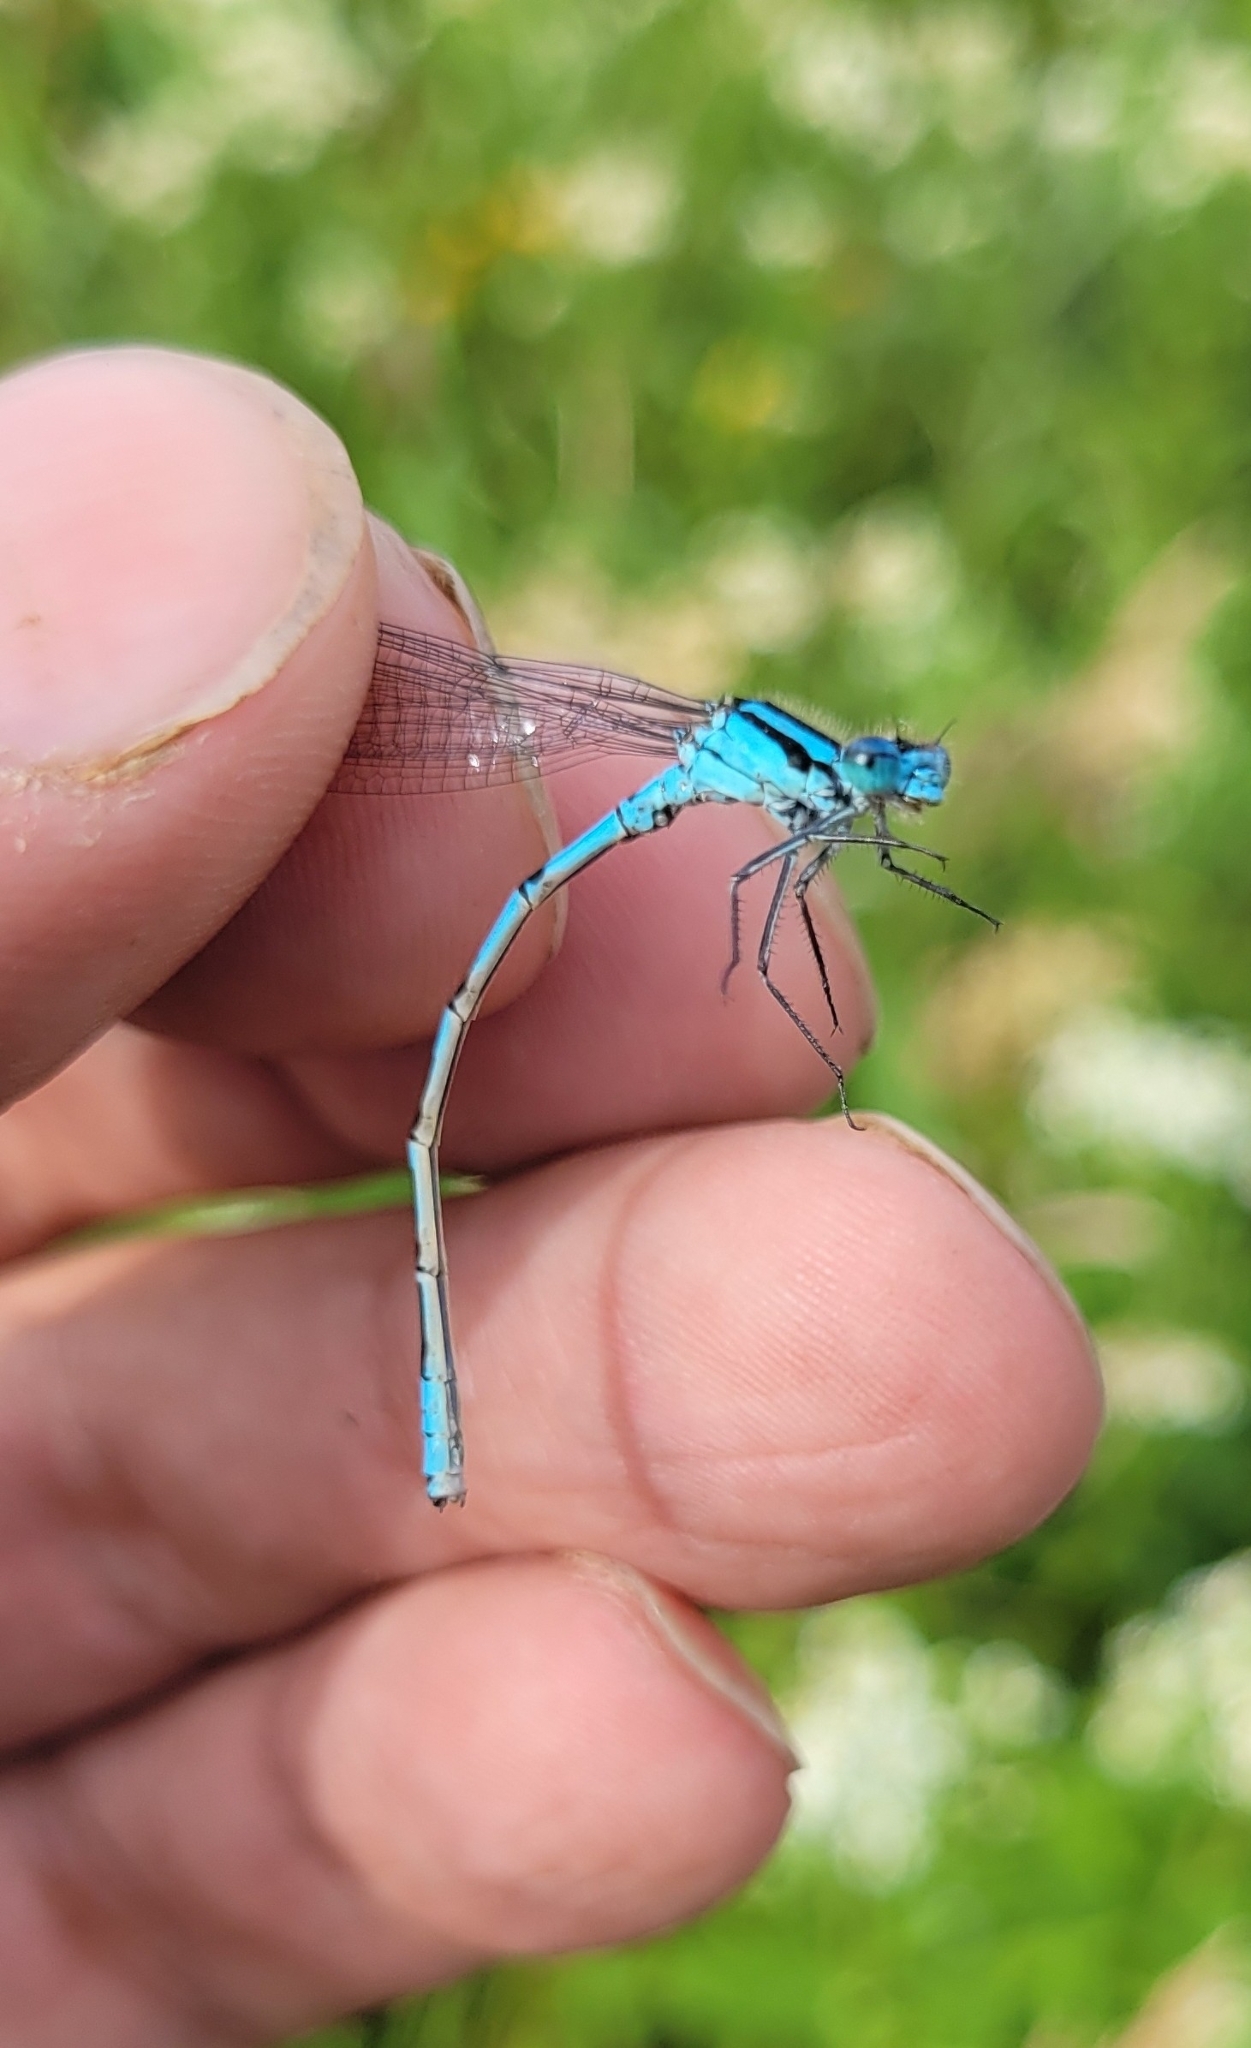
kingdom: Animalia
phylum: Arthropoda
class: Insecta
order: Odonata
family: Coenagrionidae
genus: Enallagma
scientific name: Enallagma circulatum
